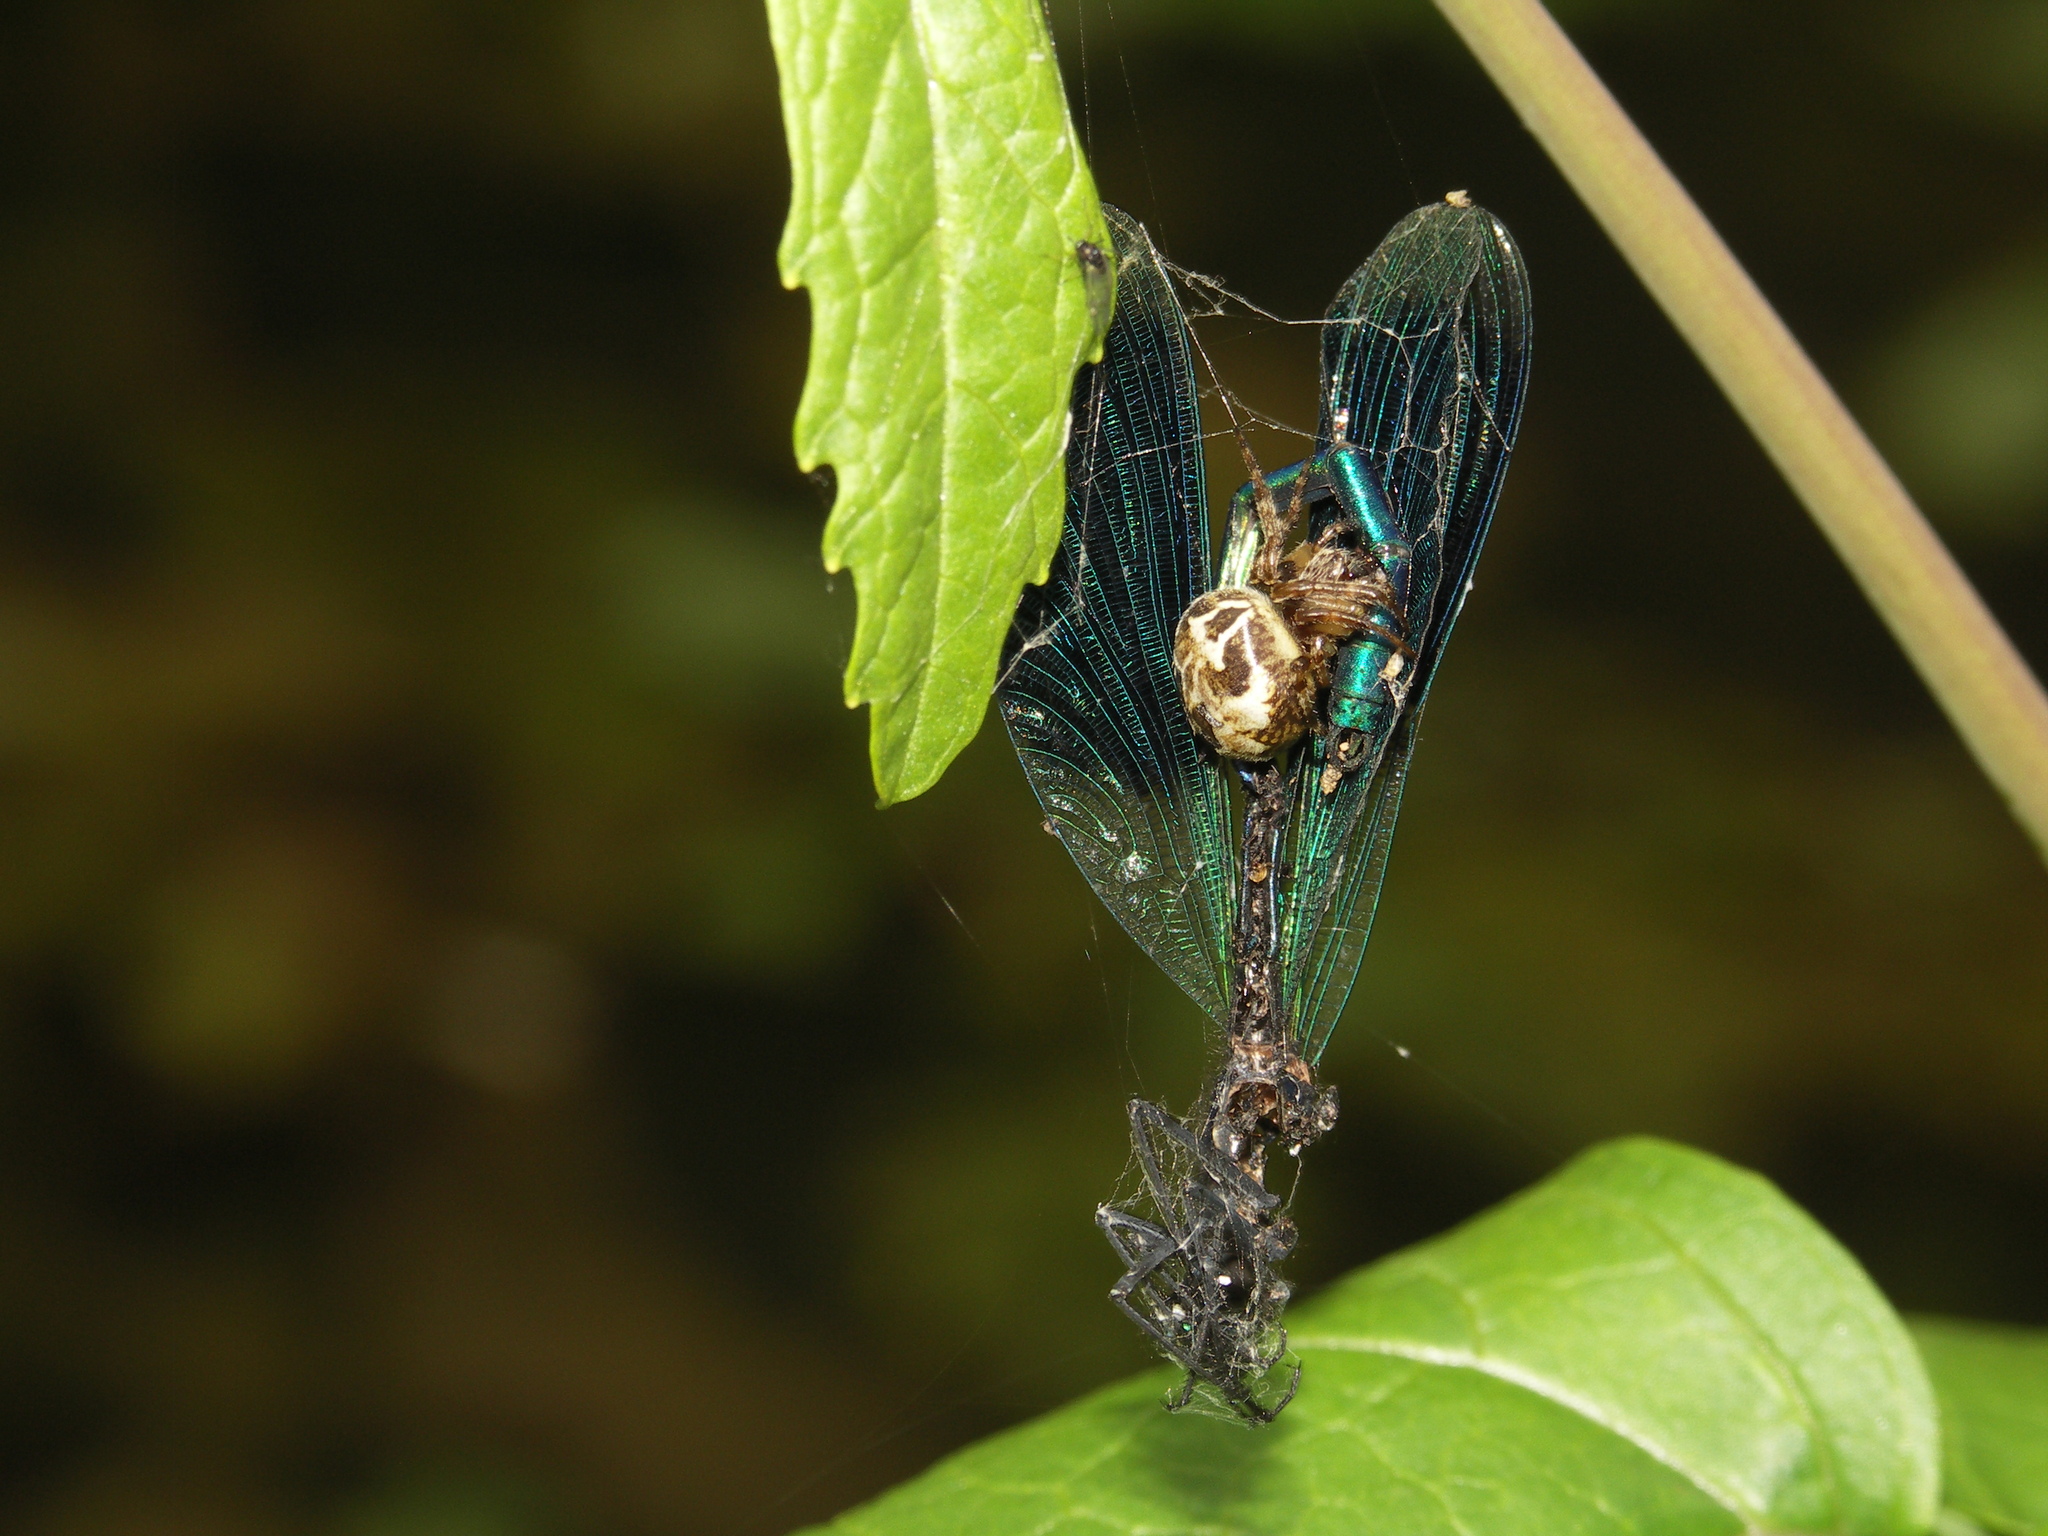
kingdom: Animalia
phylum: Arthropoda
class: Insecta
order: Odonata
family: Calopterygidae
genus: Calopteryx
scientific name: Calopteryx splendens
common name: Banded demoiselle
